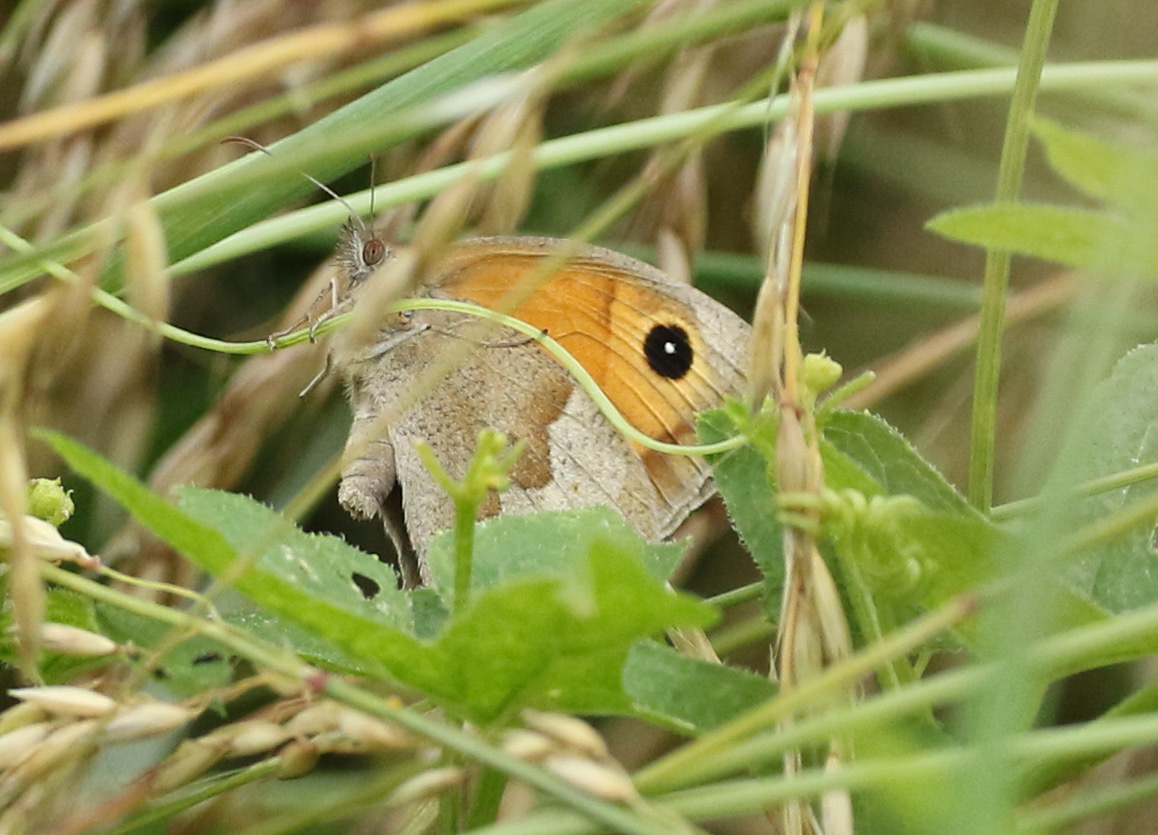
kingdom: Animalia
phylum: Arthropoda
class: Insecta
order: Lepidoptera
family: Nymphalidae
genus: Maniola
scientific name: Maniola jurtina
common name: Meadow brown
